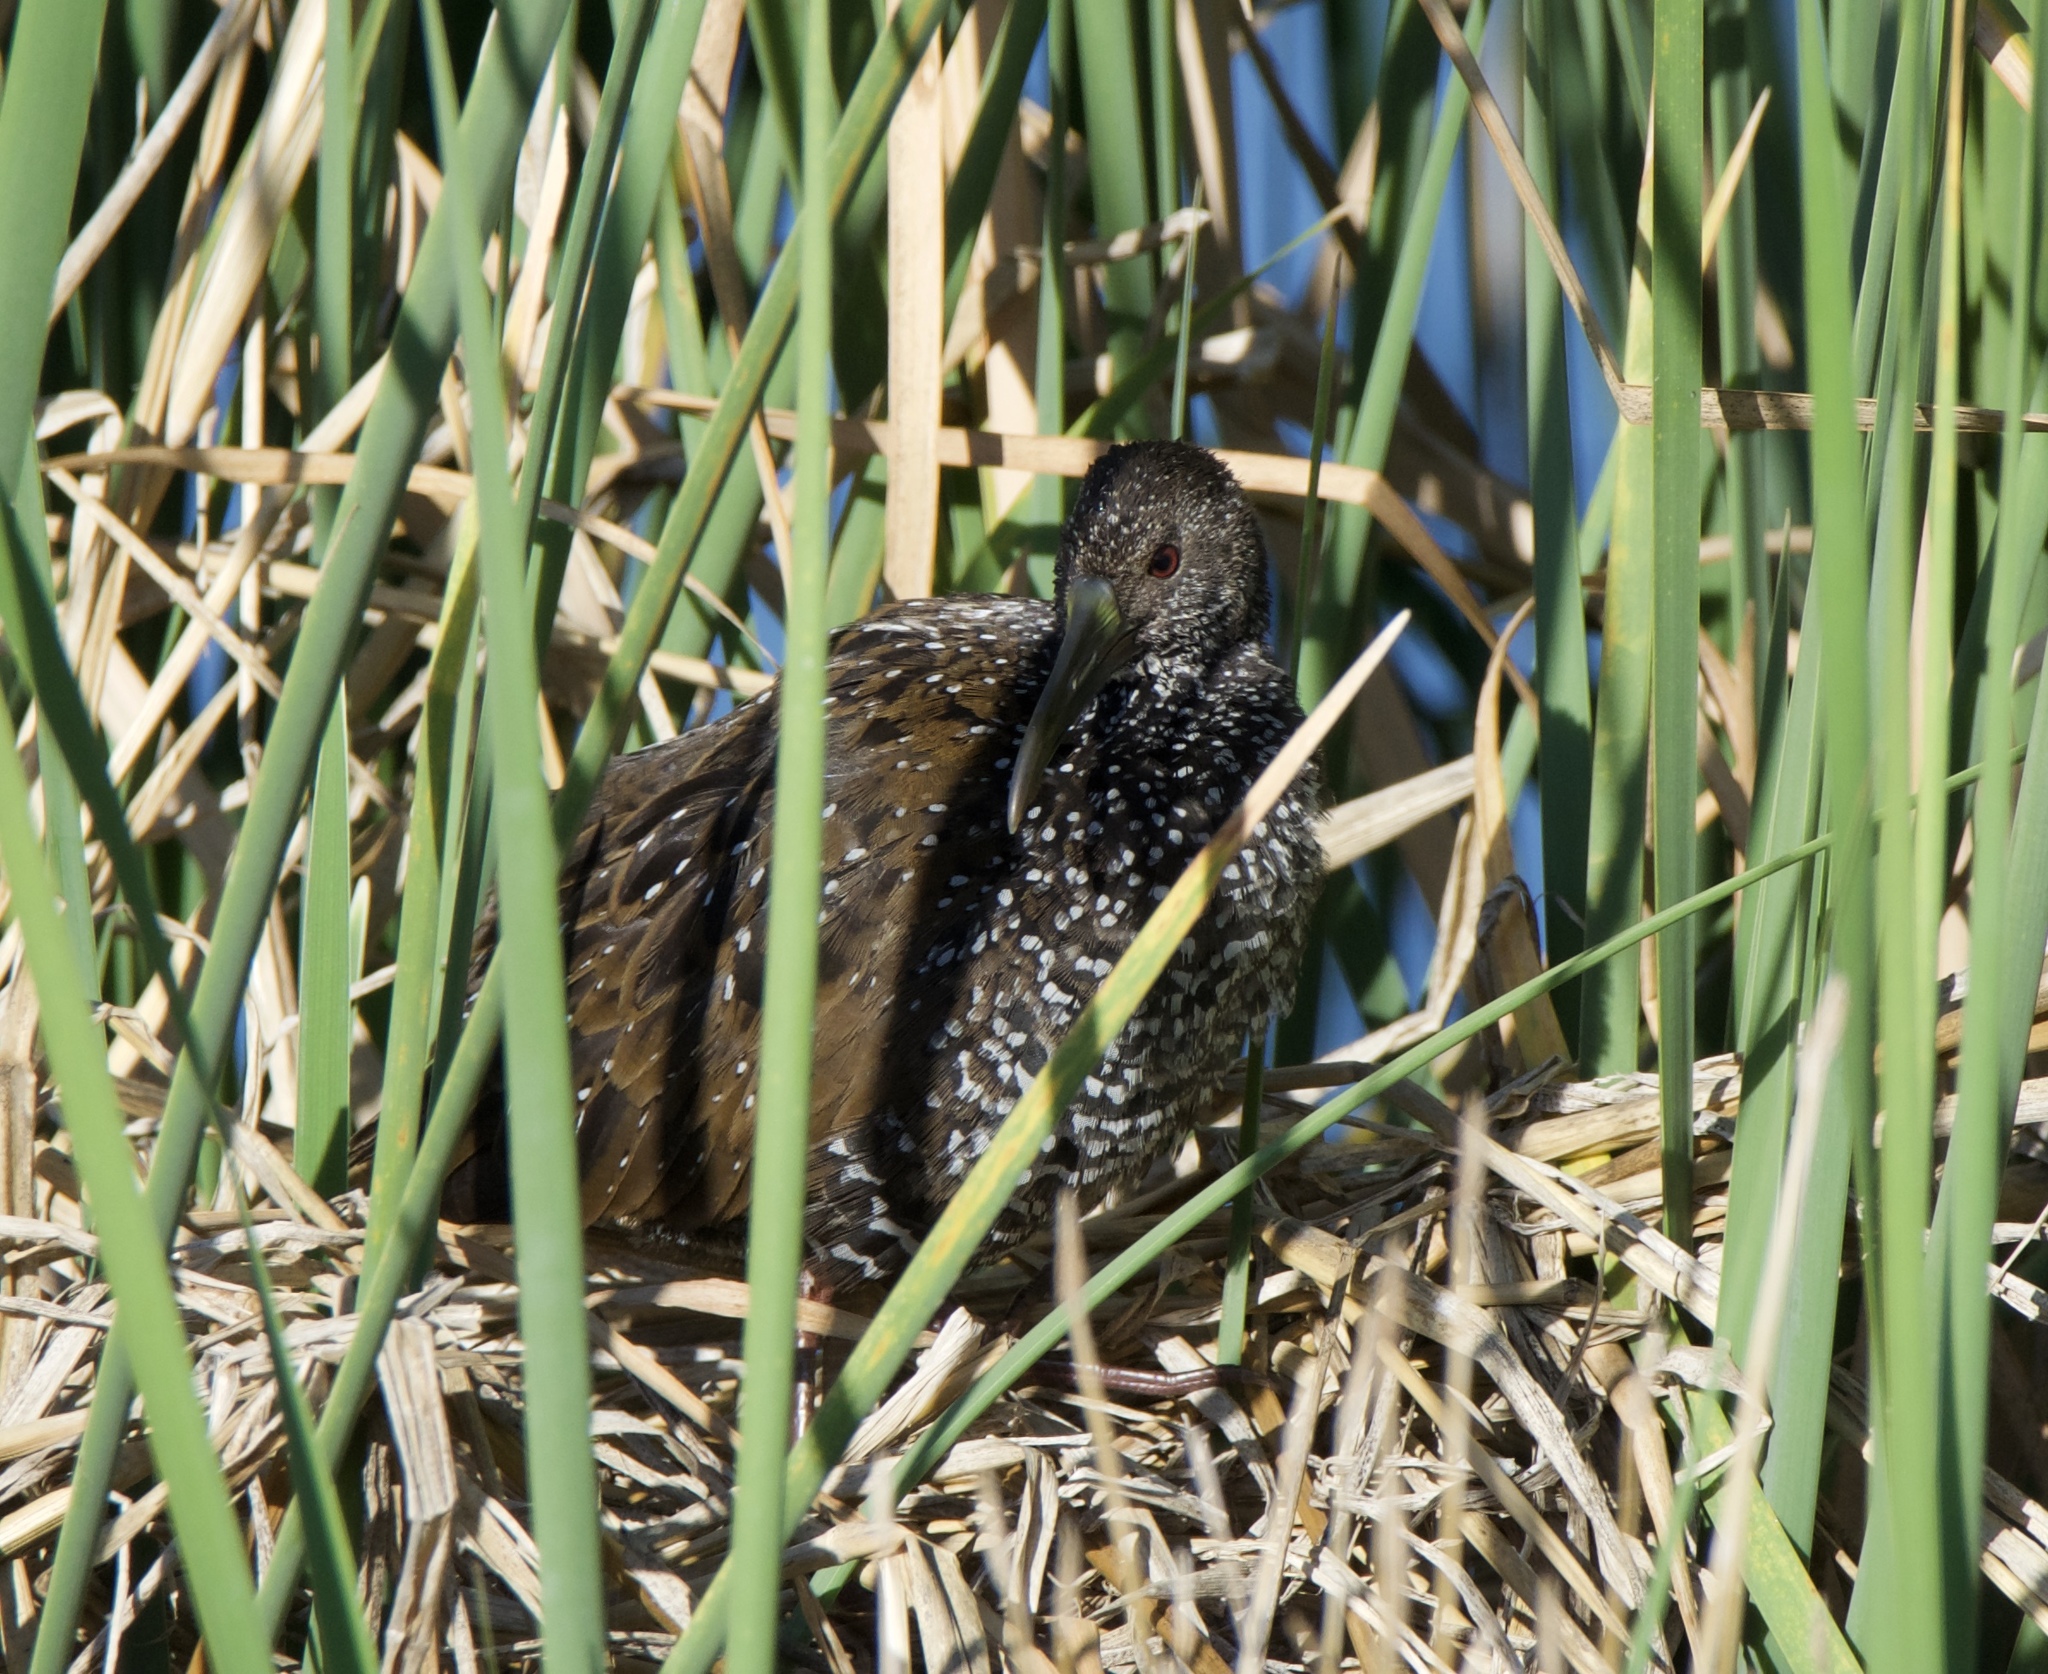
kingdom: Animalia
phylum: Chordata
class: Aves
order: Gruiformes
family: Rallidae
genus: Pardirallus
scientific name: Pardirallus maculatus
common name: Spotted rail
